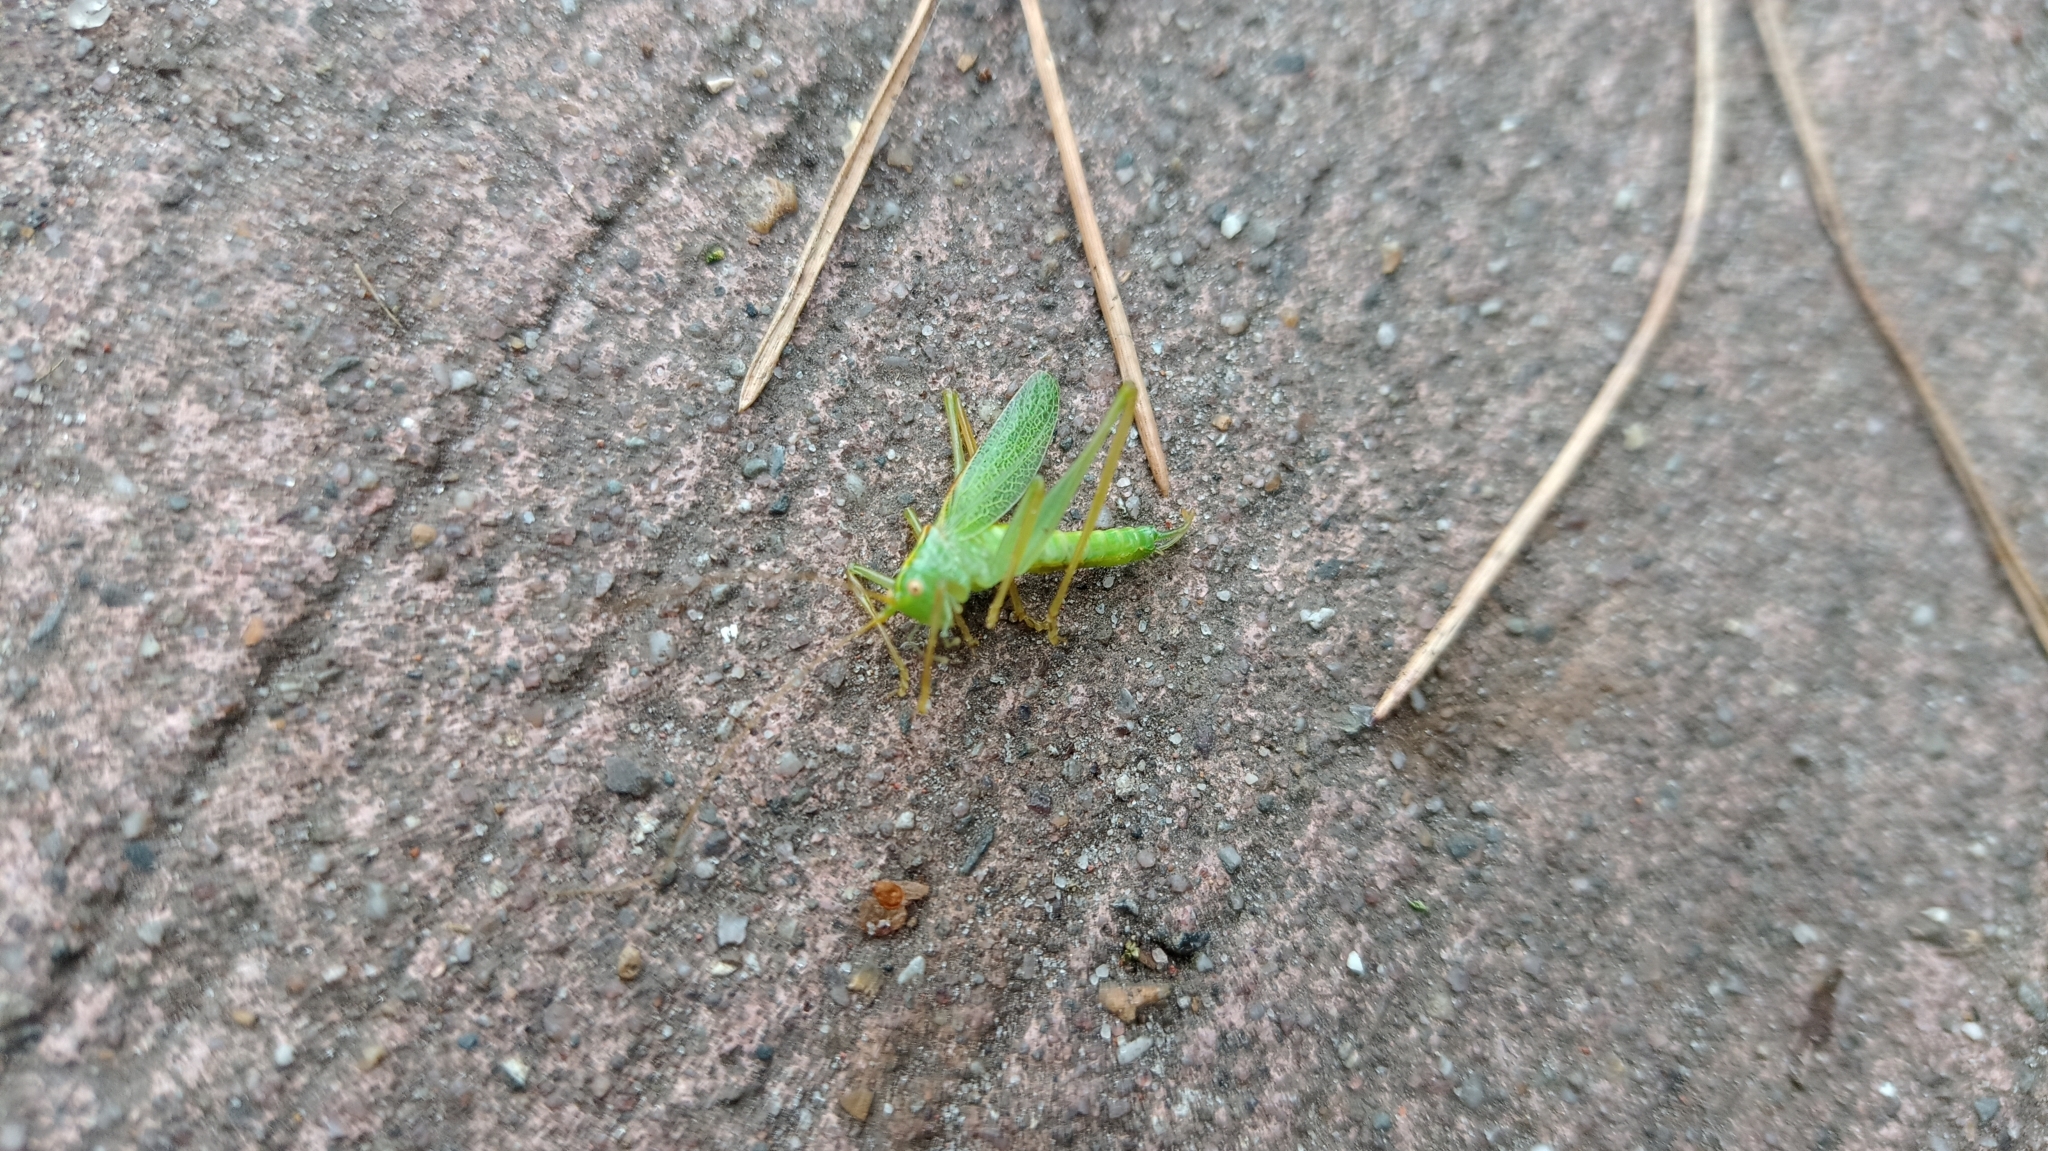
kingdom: Animalia
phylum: Arthropoda
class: Insecta
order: Orthoptera
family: Tettigoniidae
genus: Meconema
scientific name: Meconema thalassinum
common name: Oak bush-cricket
